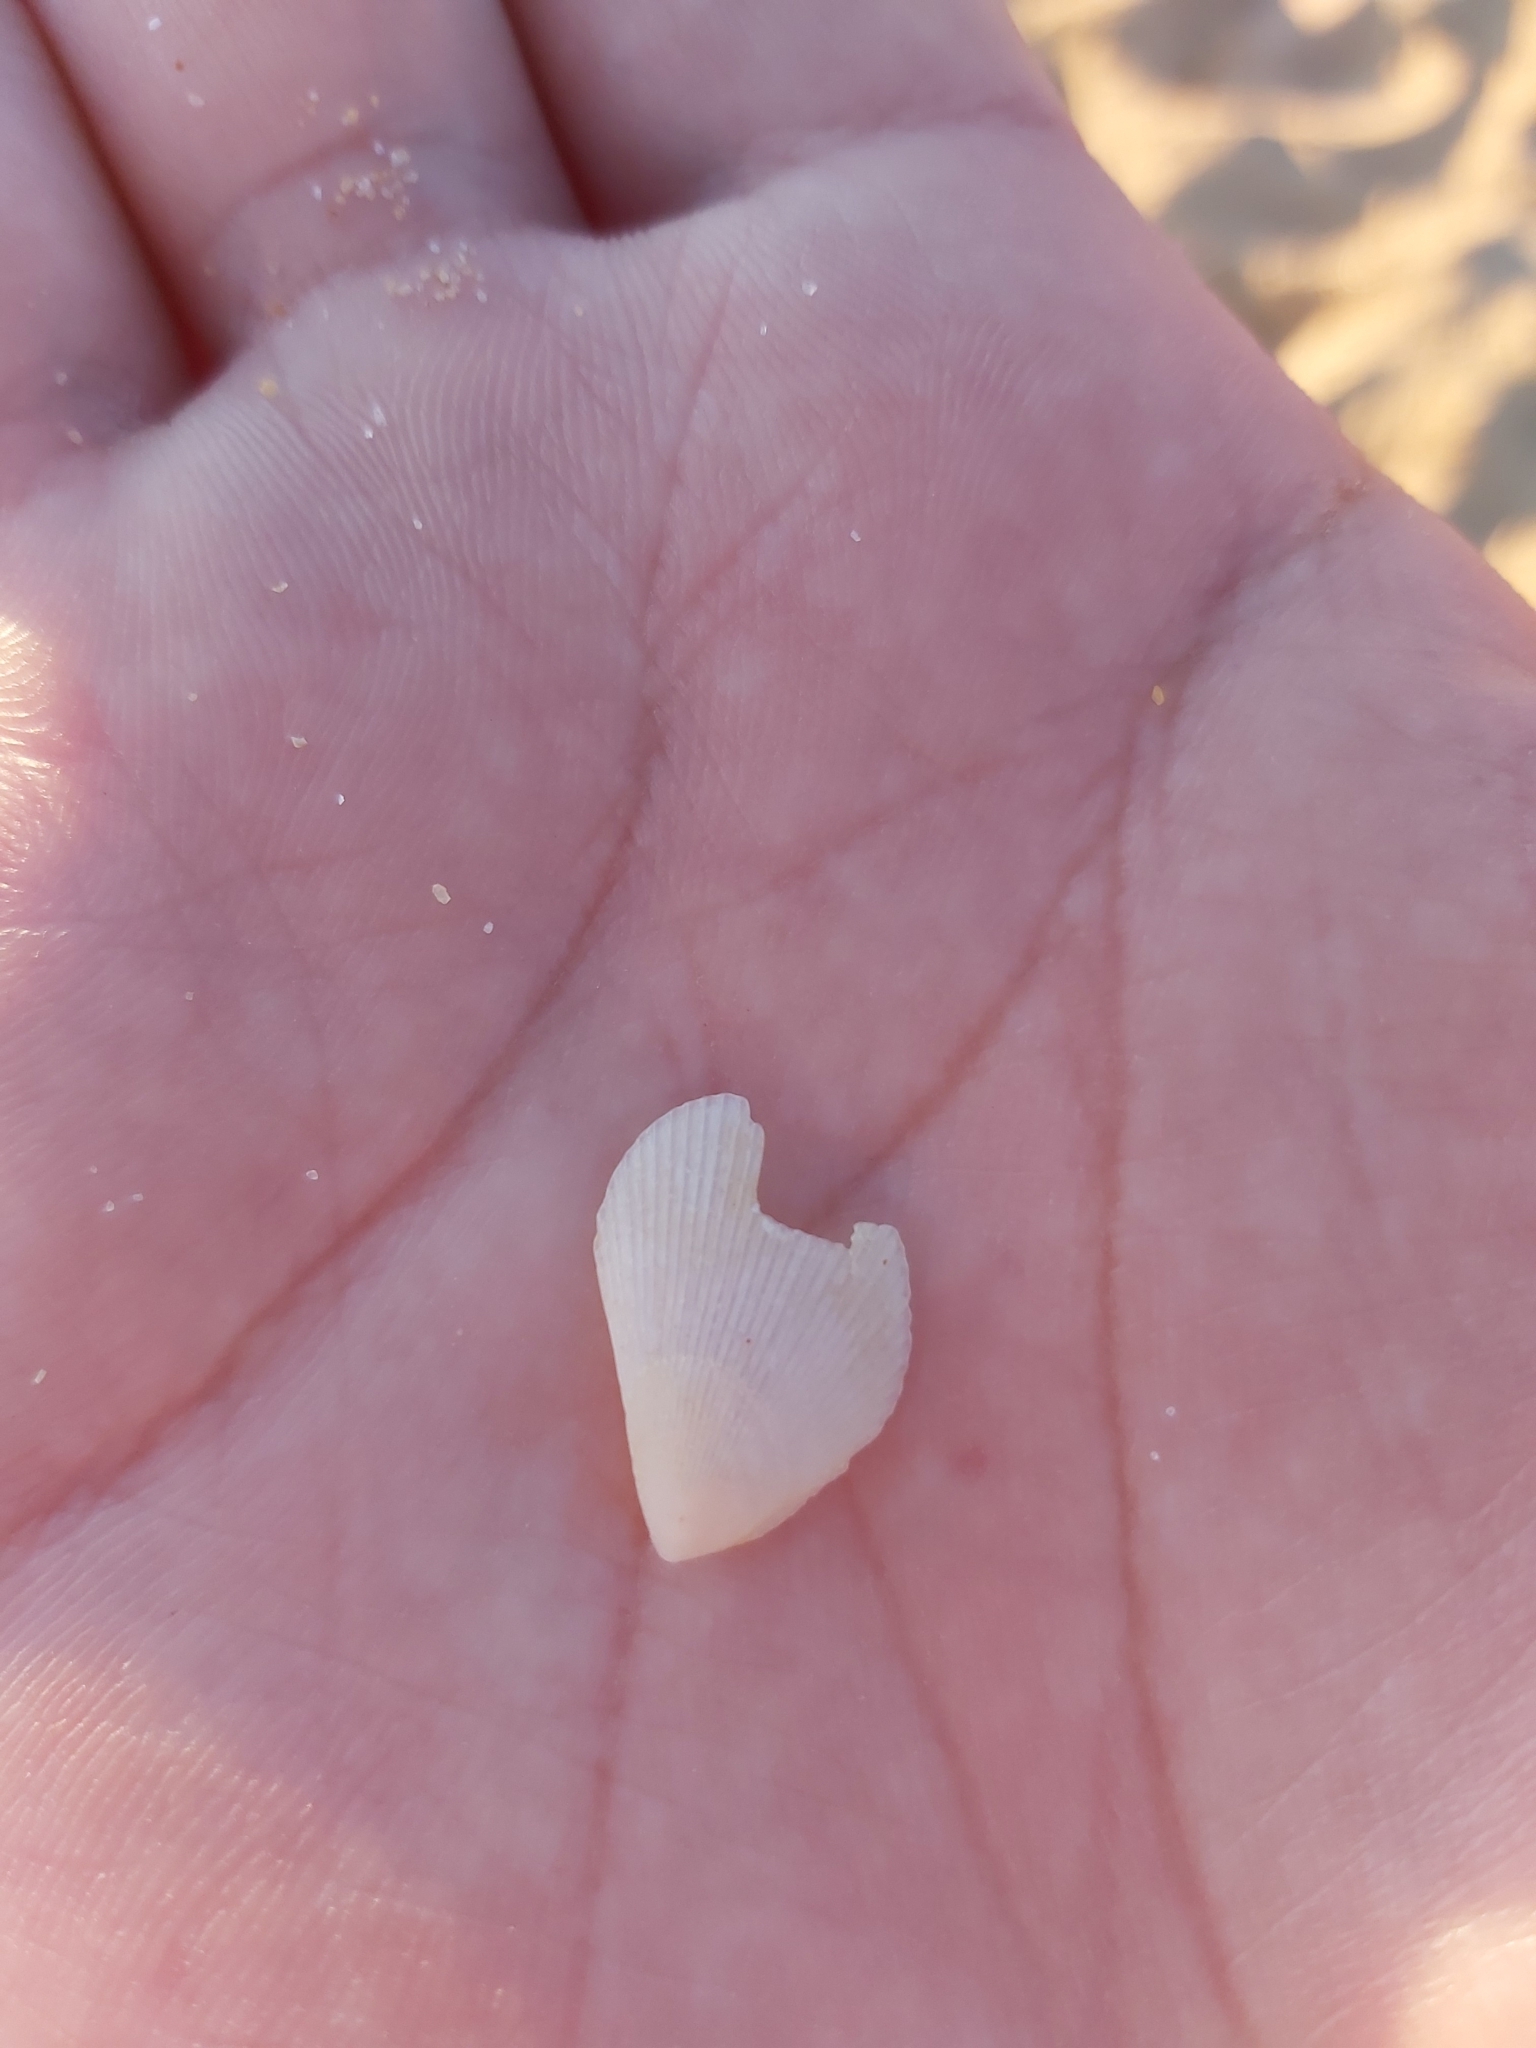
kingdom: Animalia
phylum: Mollusca
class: Bivalvia
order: Limida
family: Limidae
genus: Lima
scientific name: Lima nimbifer
